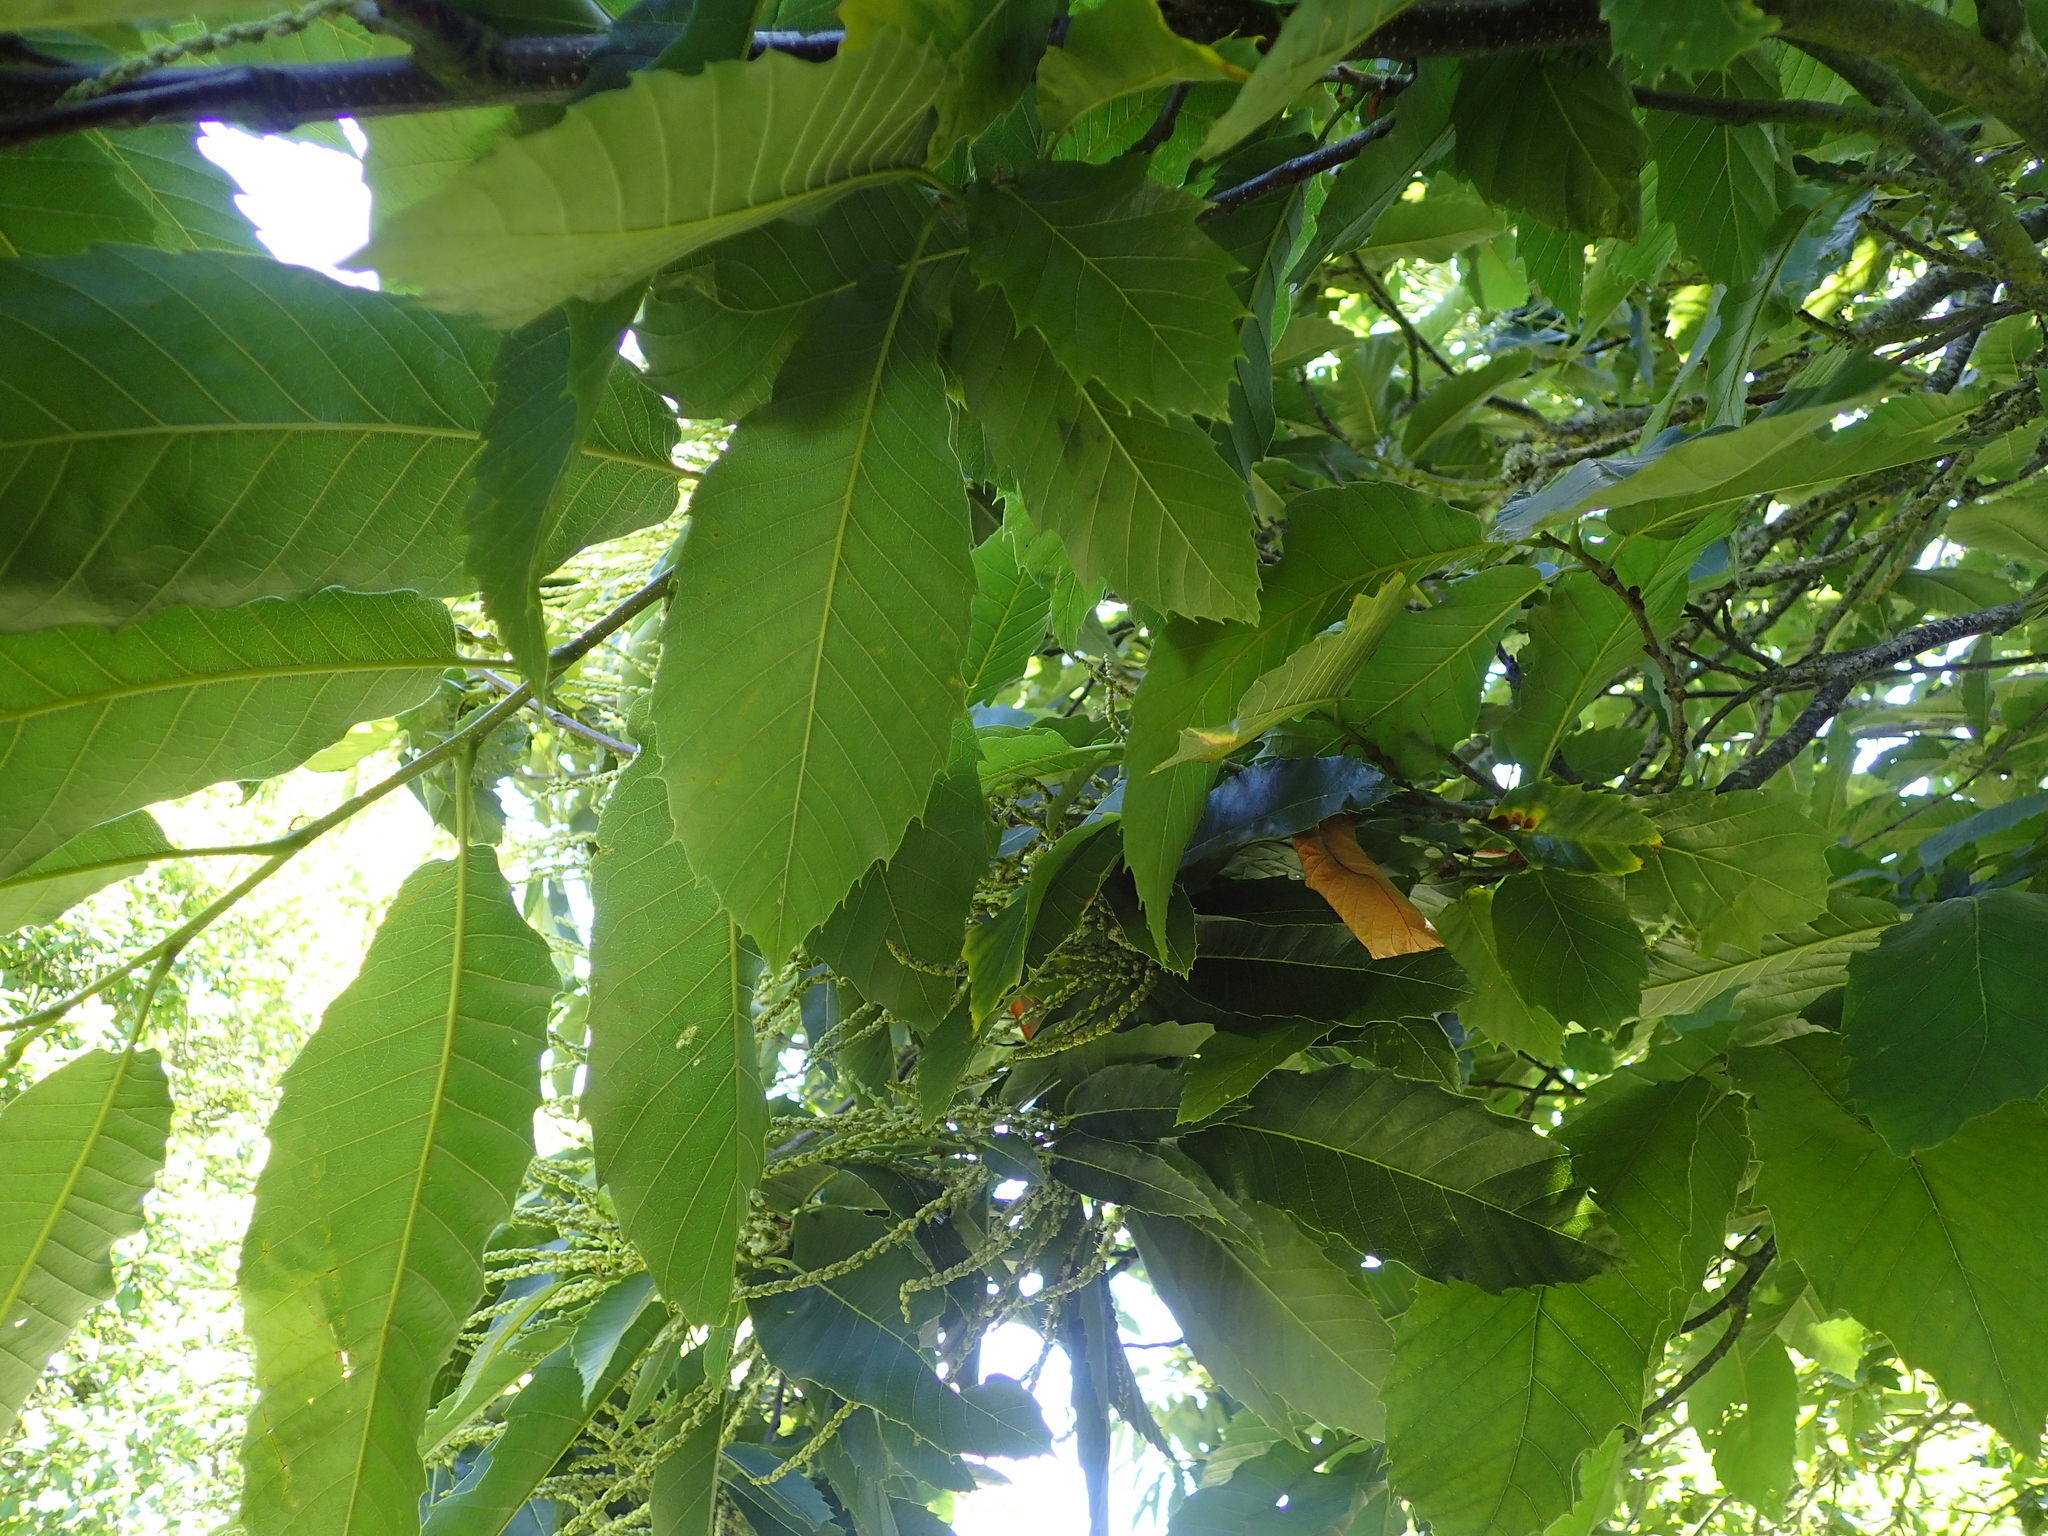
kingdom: Plantae
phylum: Tracheophyta
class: Magnoliopsida
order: Fagales
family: Fagaceae
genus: Castanea
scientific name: Castanea sativa
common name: Sweet chestnut
